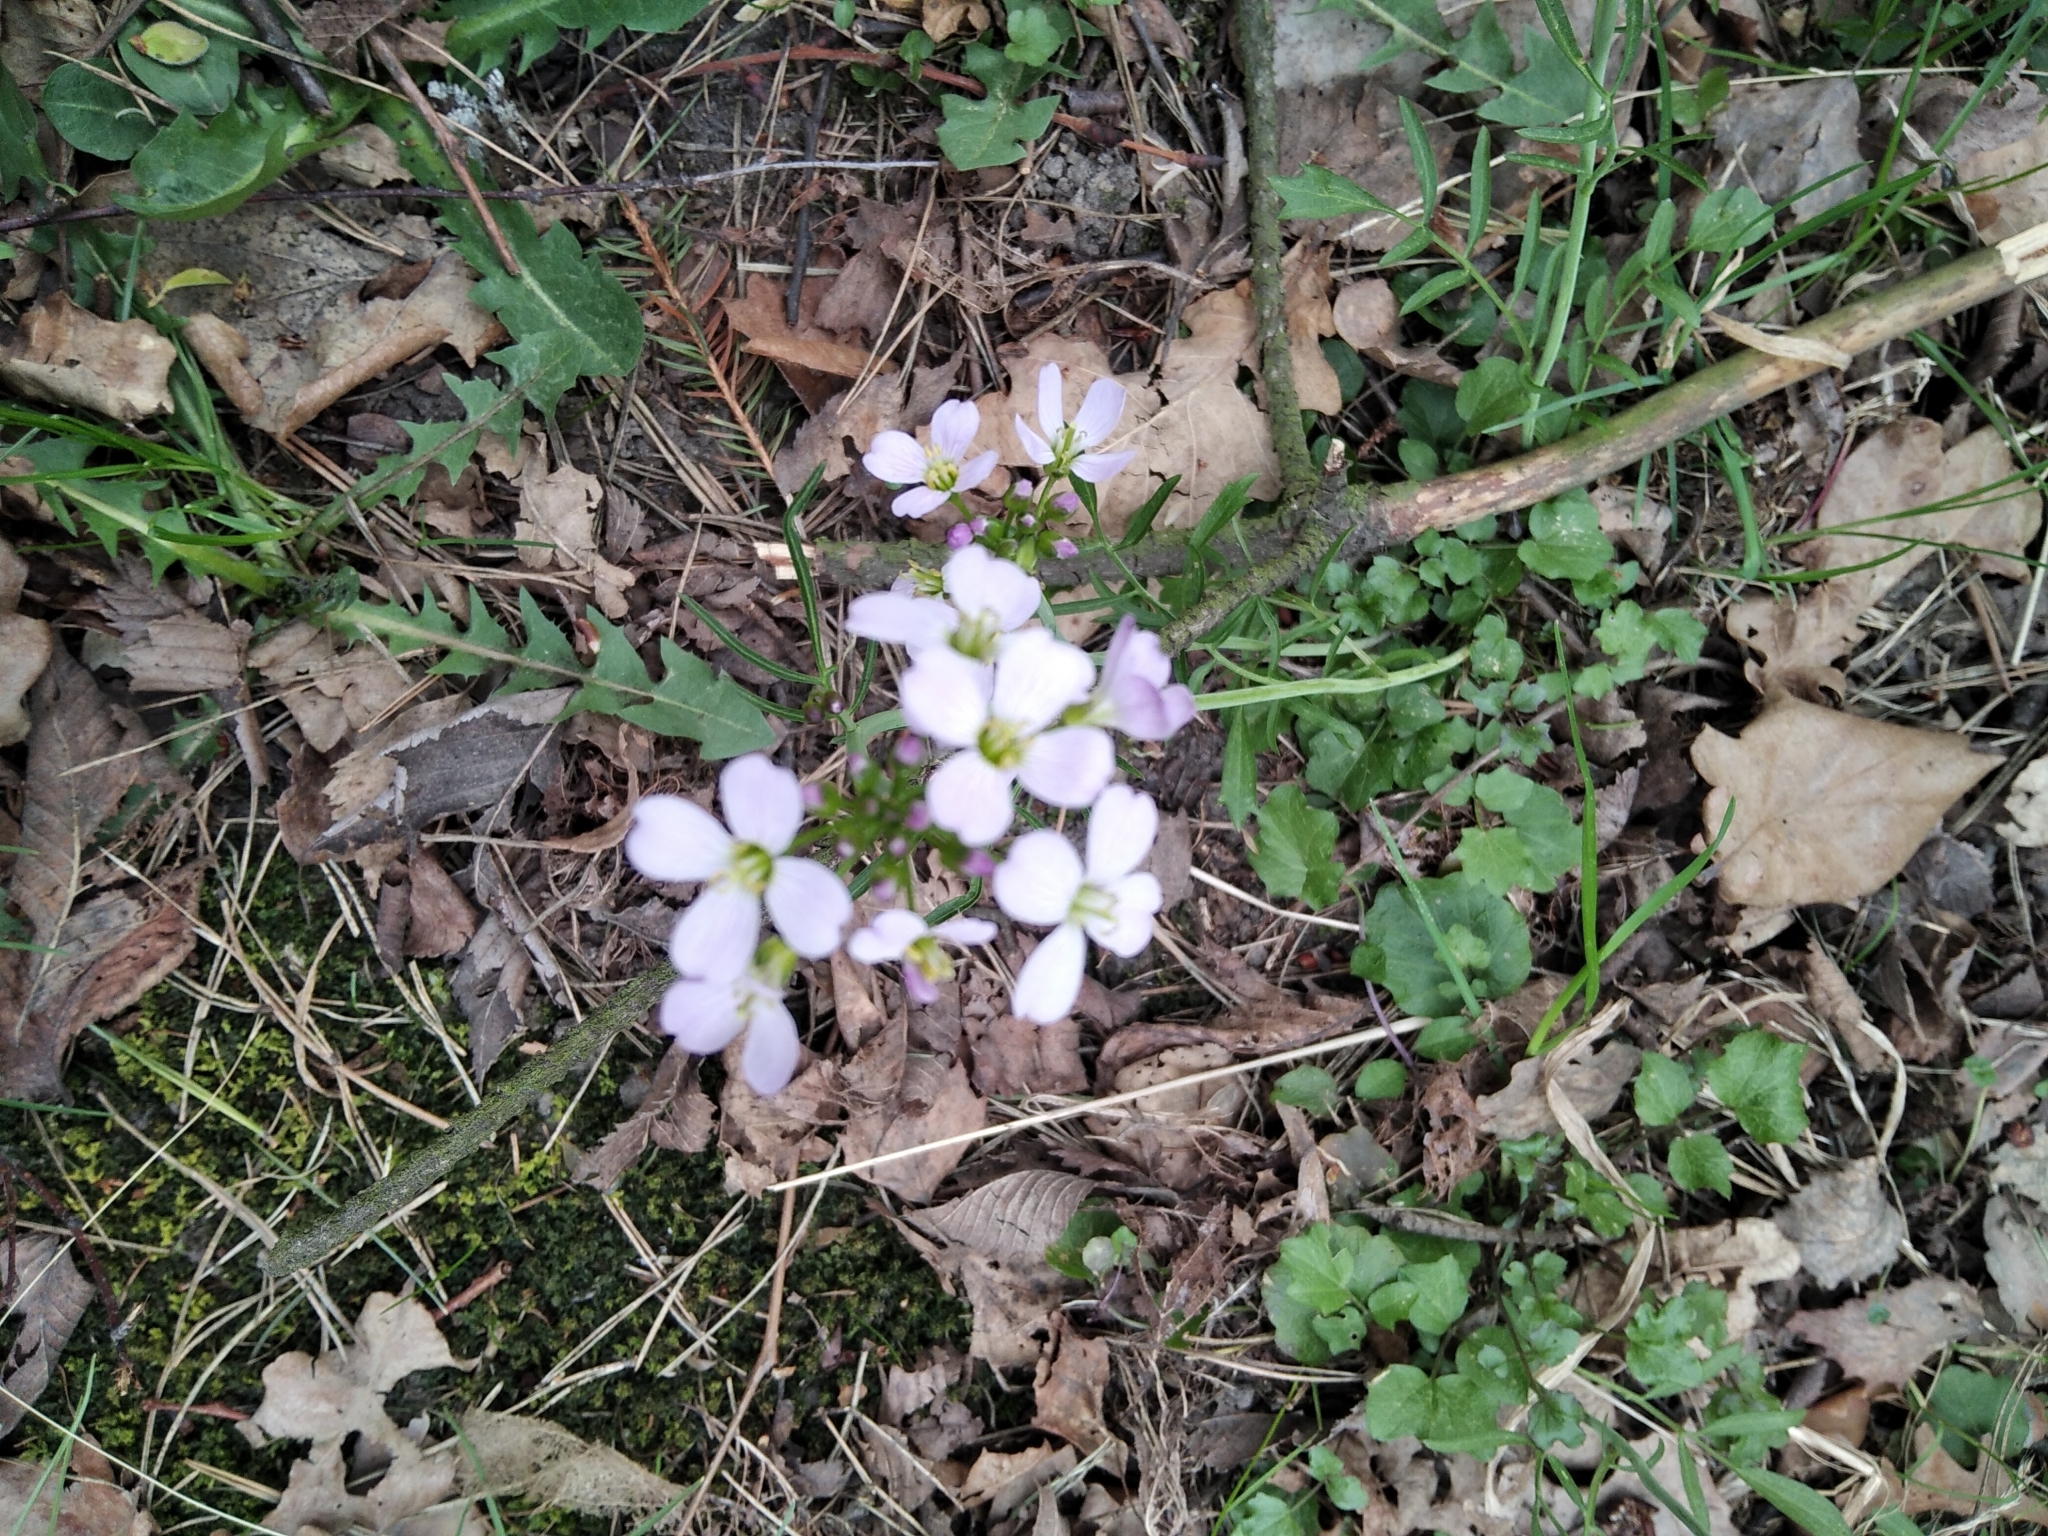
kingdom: Plantae
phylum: Tracheophyta
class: Magnoliopsida
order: Brassicales
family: Brassicaceae
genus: Cardamine
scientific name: Cardamine pratensis
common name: Cuckoo flower
